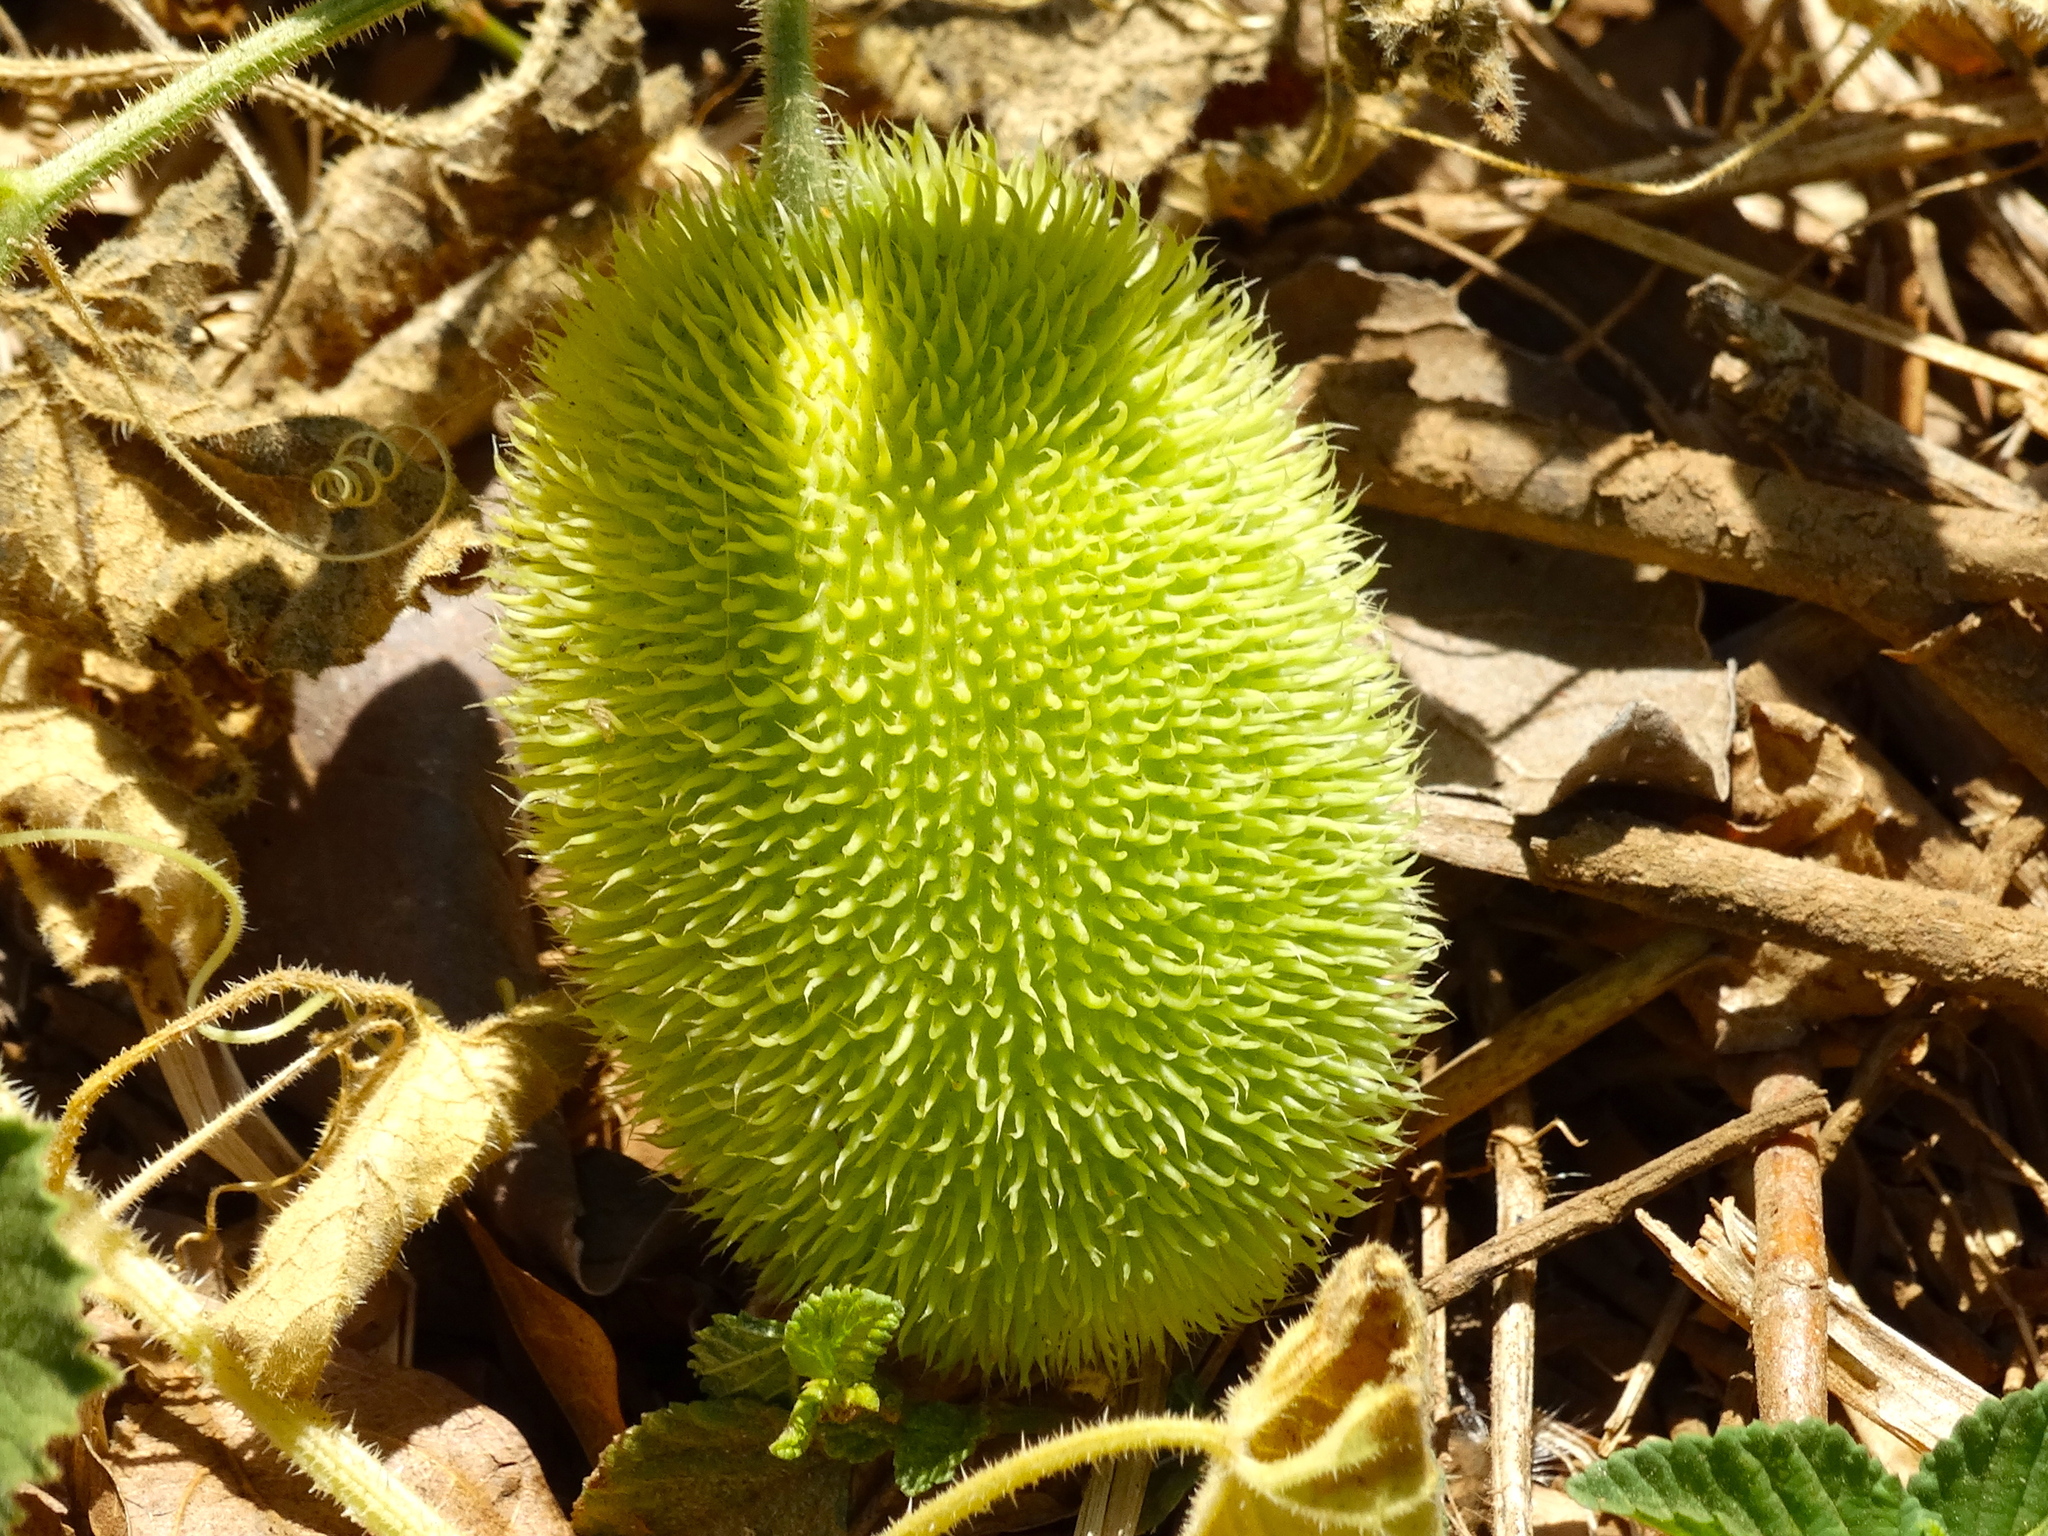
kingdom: Plantae
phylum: Tracheophyta
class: Magnoliopsida
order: Cucurbitales
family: Cucurbitaceae
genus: Cucumis
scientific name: Cucumis dipsaceus
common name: Hedgehog gourd
